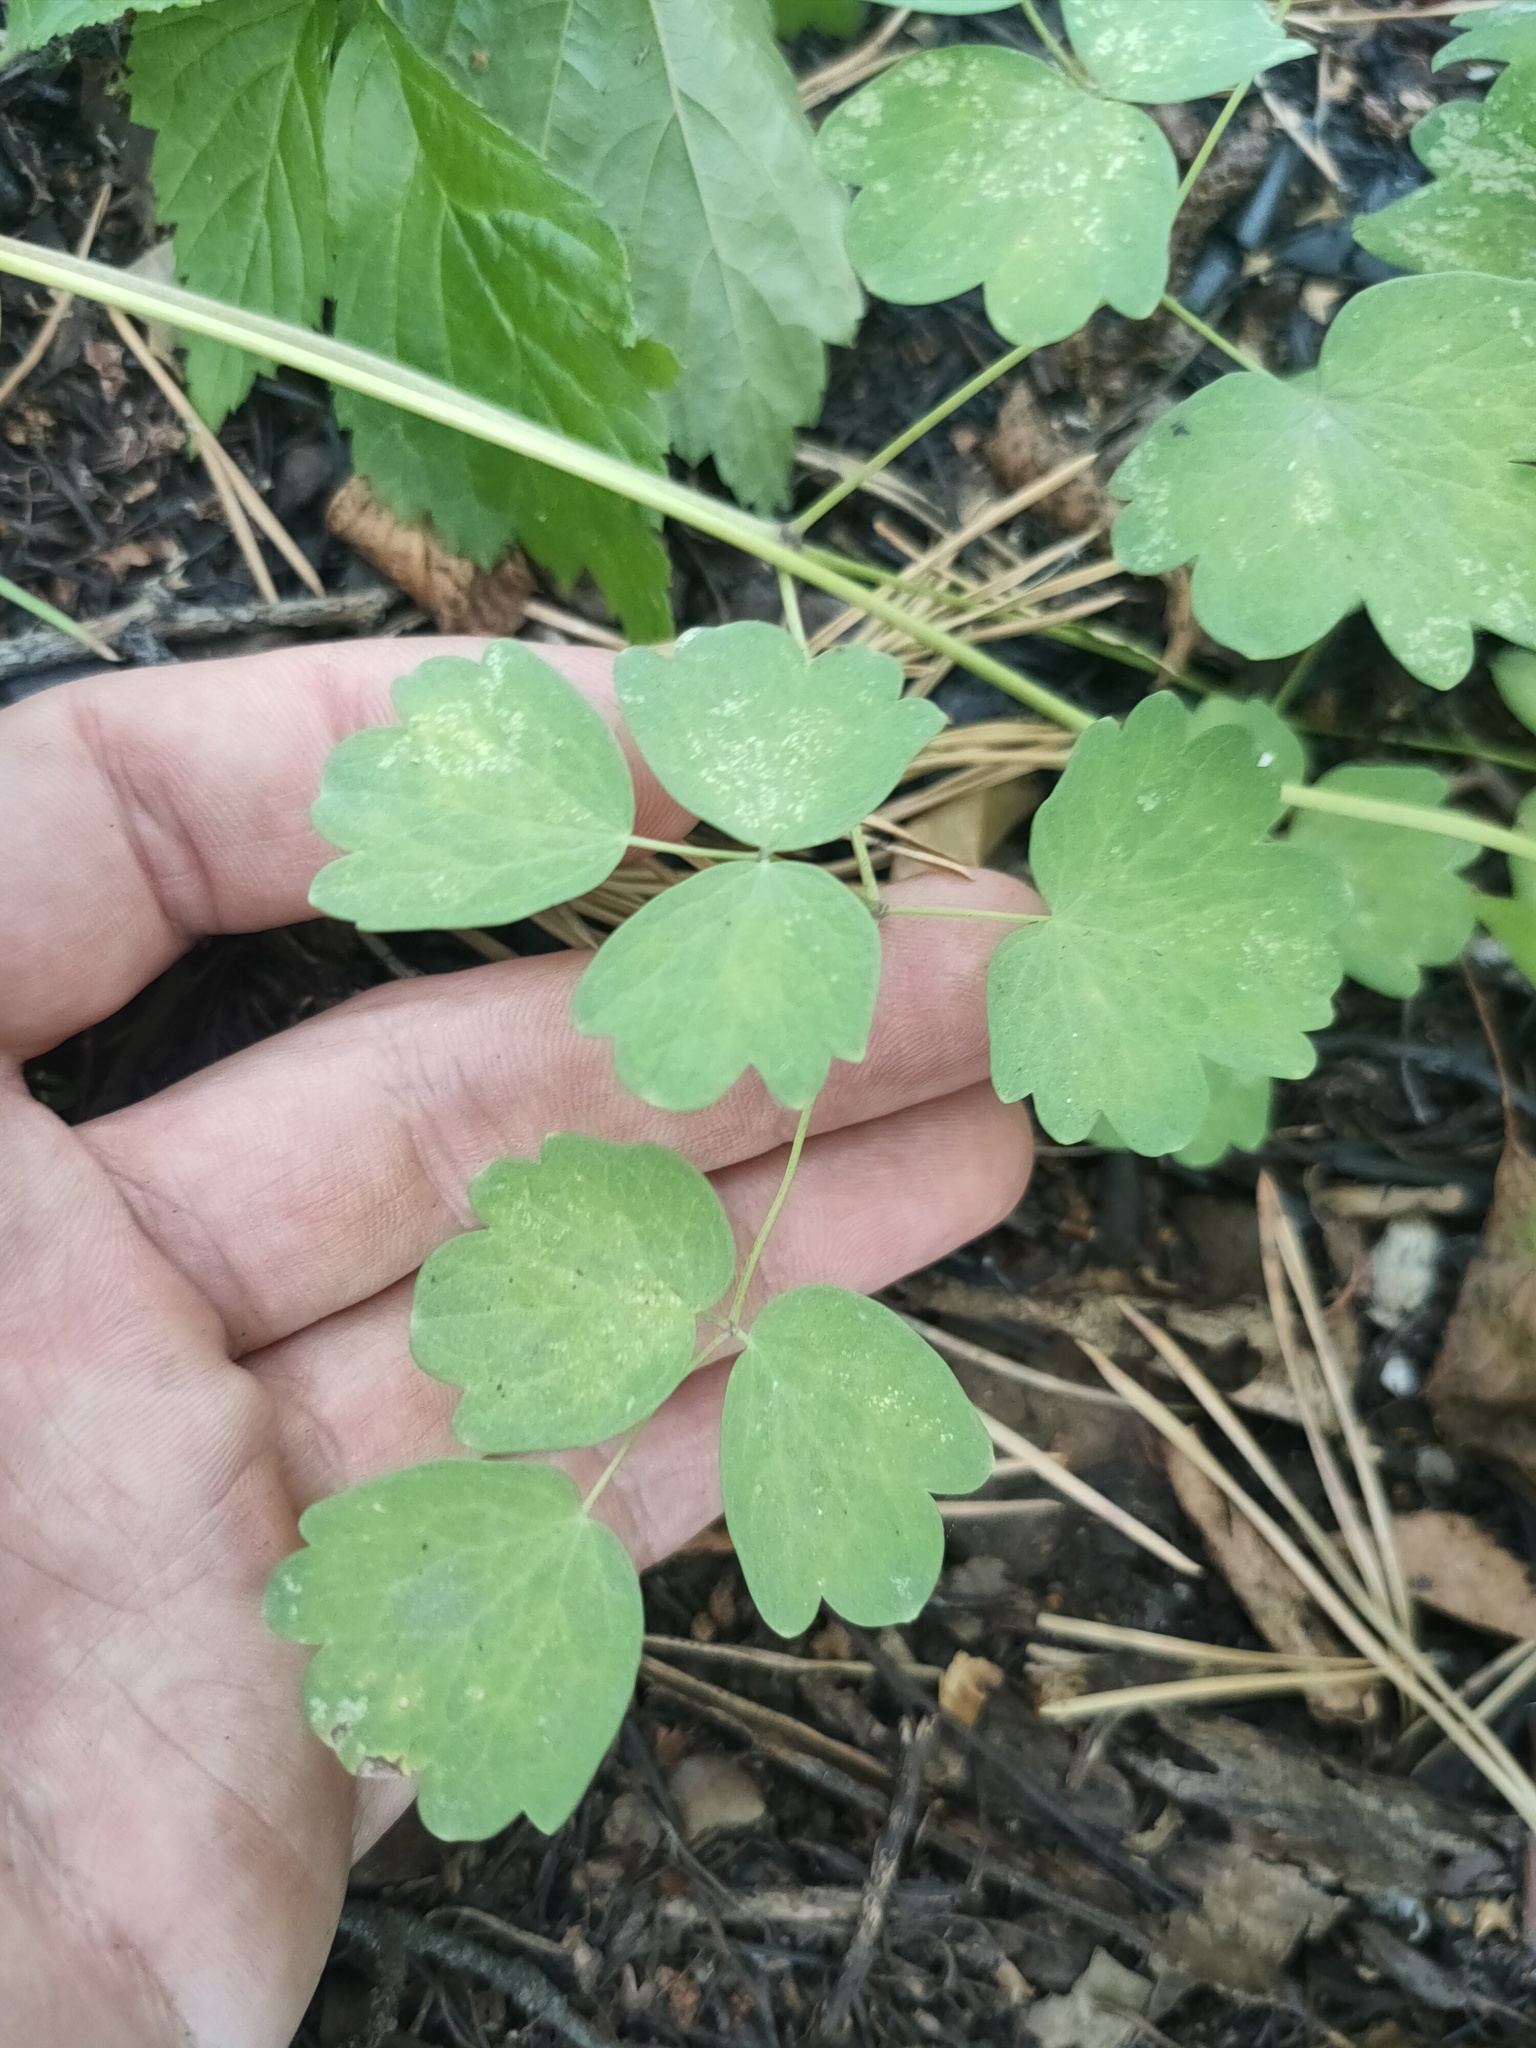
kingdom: Plantae
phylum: Tracheophyta
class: Magnoliopsida
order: Ranunculales
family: Ranunculaceae
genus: Thalictrum
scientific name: Thalictrum minus
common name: Lesser meadow-rue
